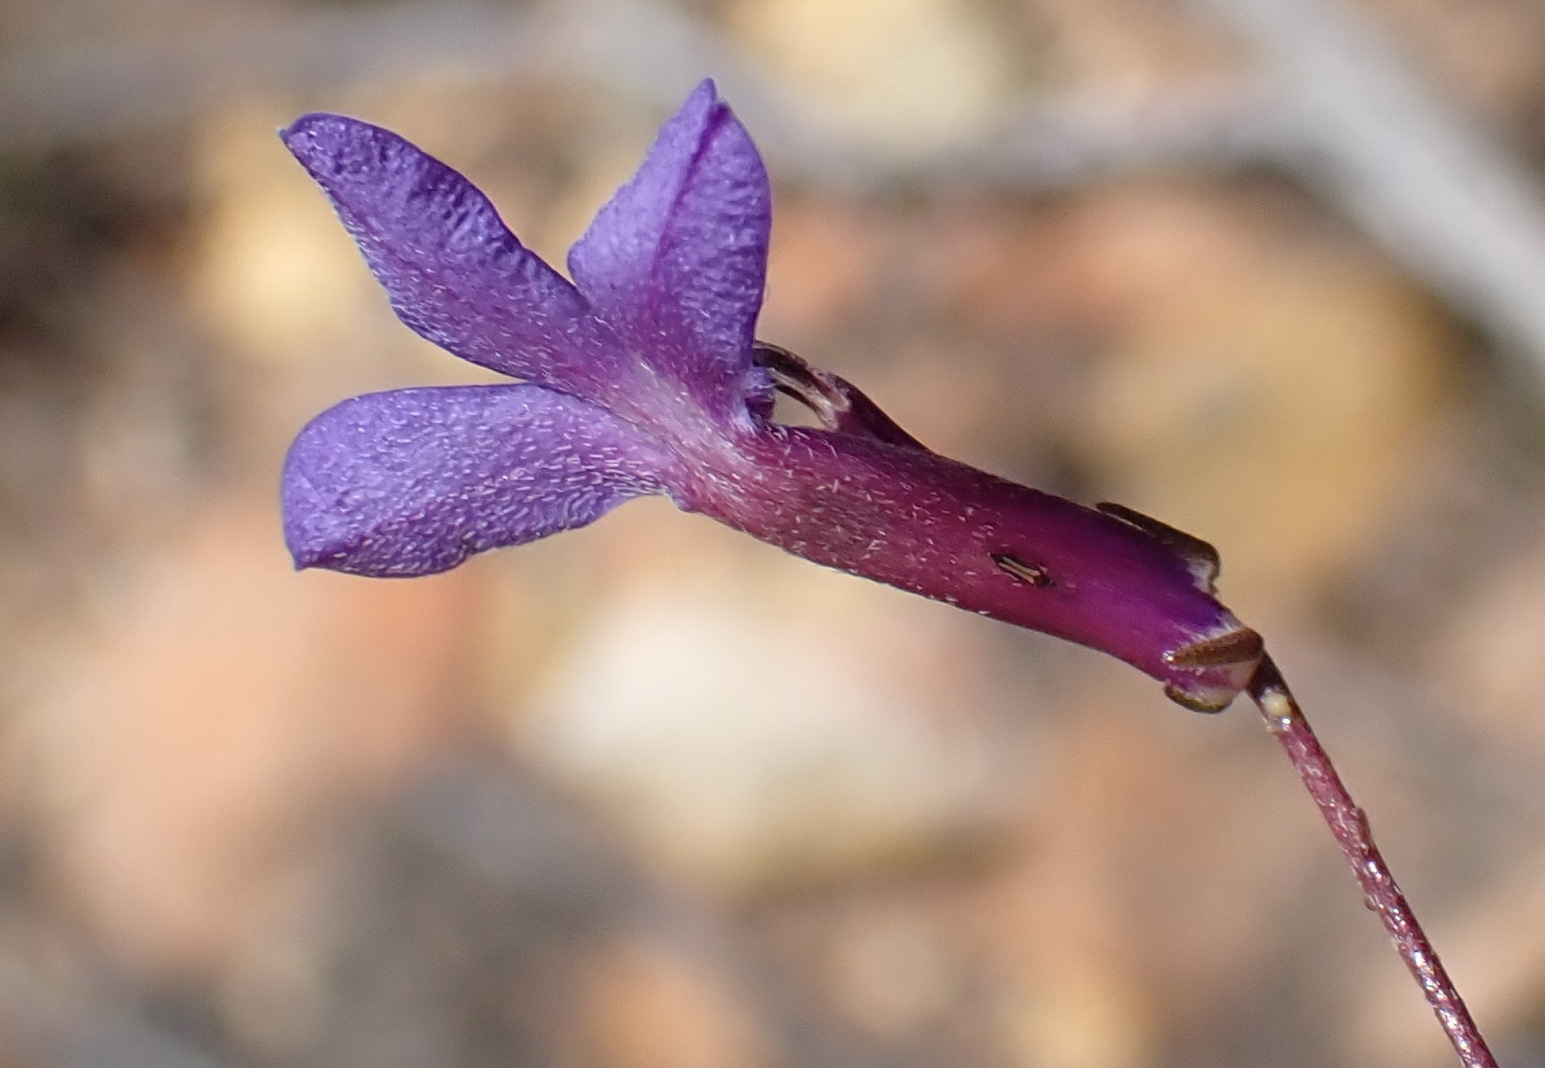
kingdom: Plantae
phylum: Tracheophyta
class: Magnoliopsida
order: Asterales
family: Campanulaceae
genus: Lobelia
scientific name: Lobelia tomentosa
